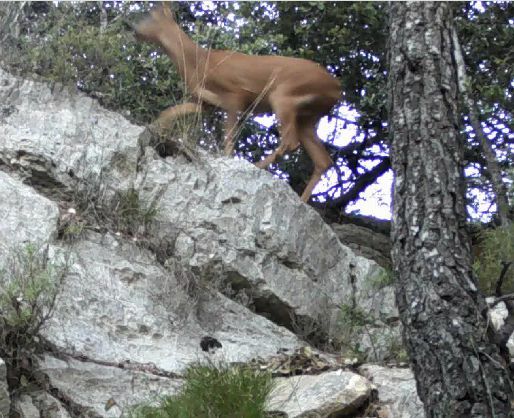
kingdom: Animalia
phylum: Chordata
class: Mammalia
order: Artiodactyla
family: Cervidae
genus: Capreolus
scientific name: Capreolus capreolus
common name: Western roe deer
